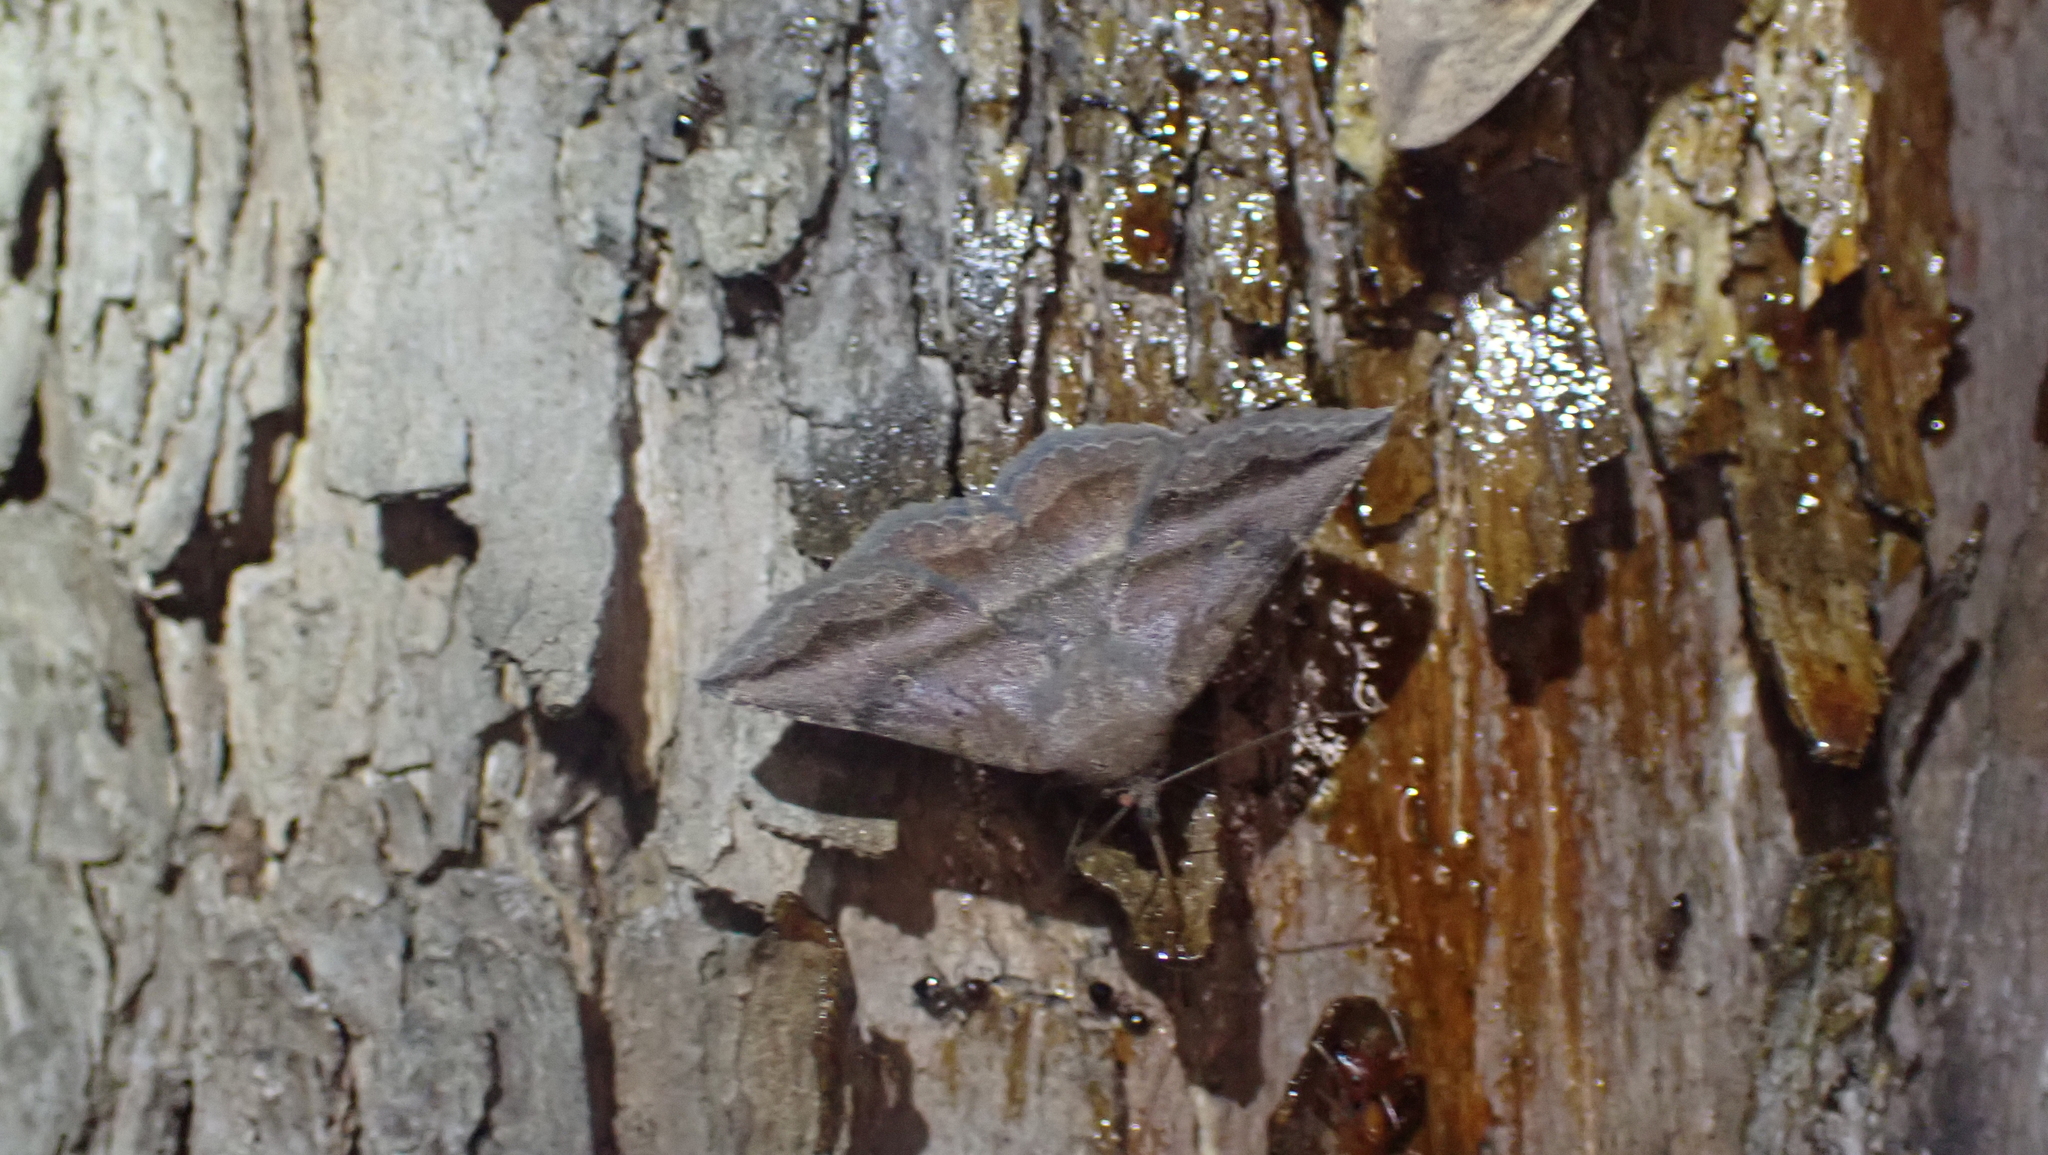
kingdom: Animalia
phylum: Arthropoda
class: Insecta
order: Lepidoptera
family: Erebidae
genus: Lesmone
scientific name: Lesmone detrahens
